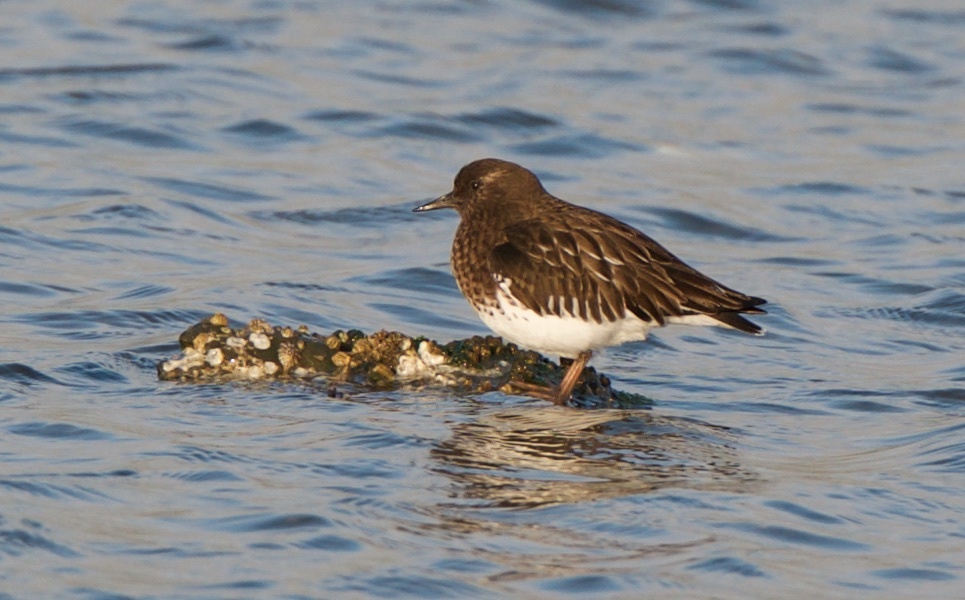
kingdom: Animalia
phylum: Chordata
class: Aves
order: Charadriiformes
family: Scolopacidae
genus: Arenaria
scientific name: Arenaria melanocephala
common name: Black turnstone
